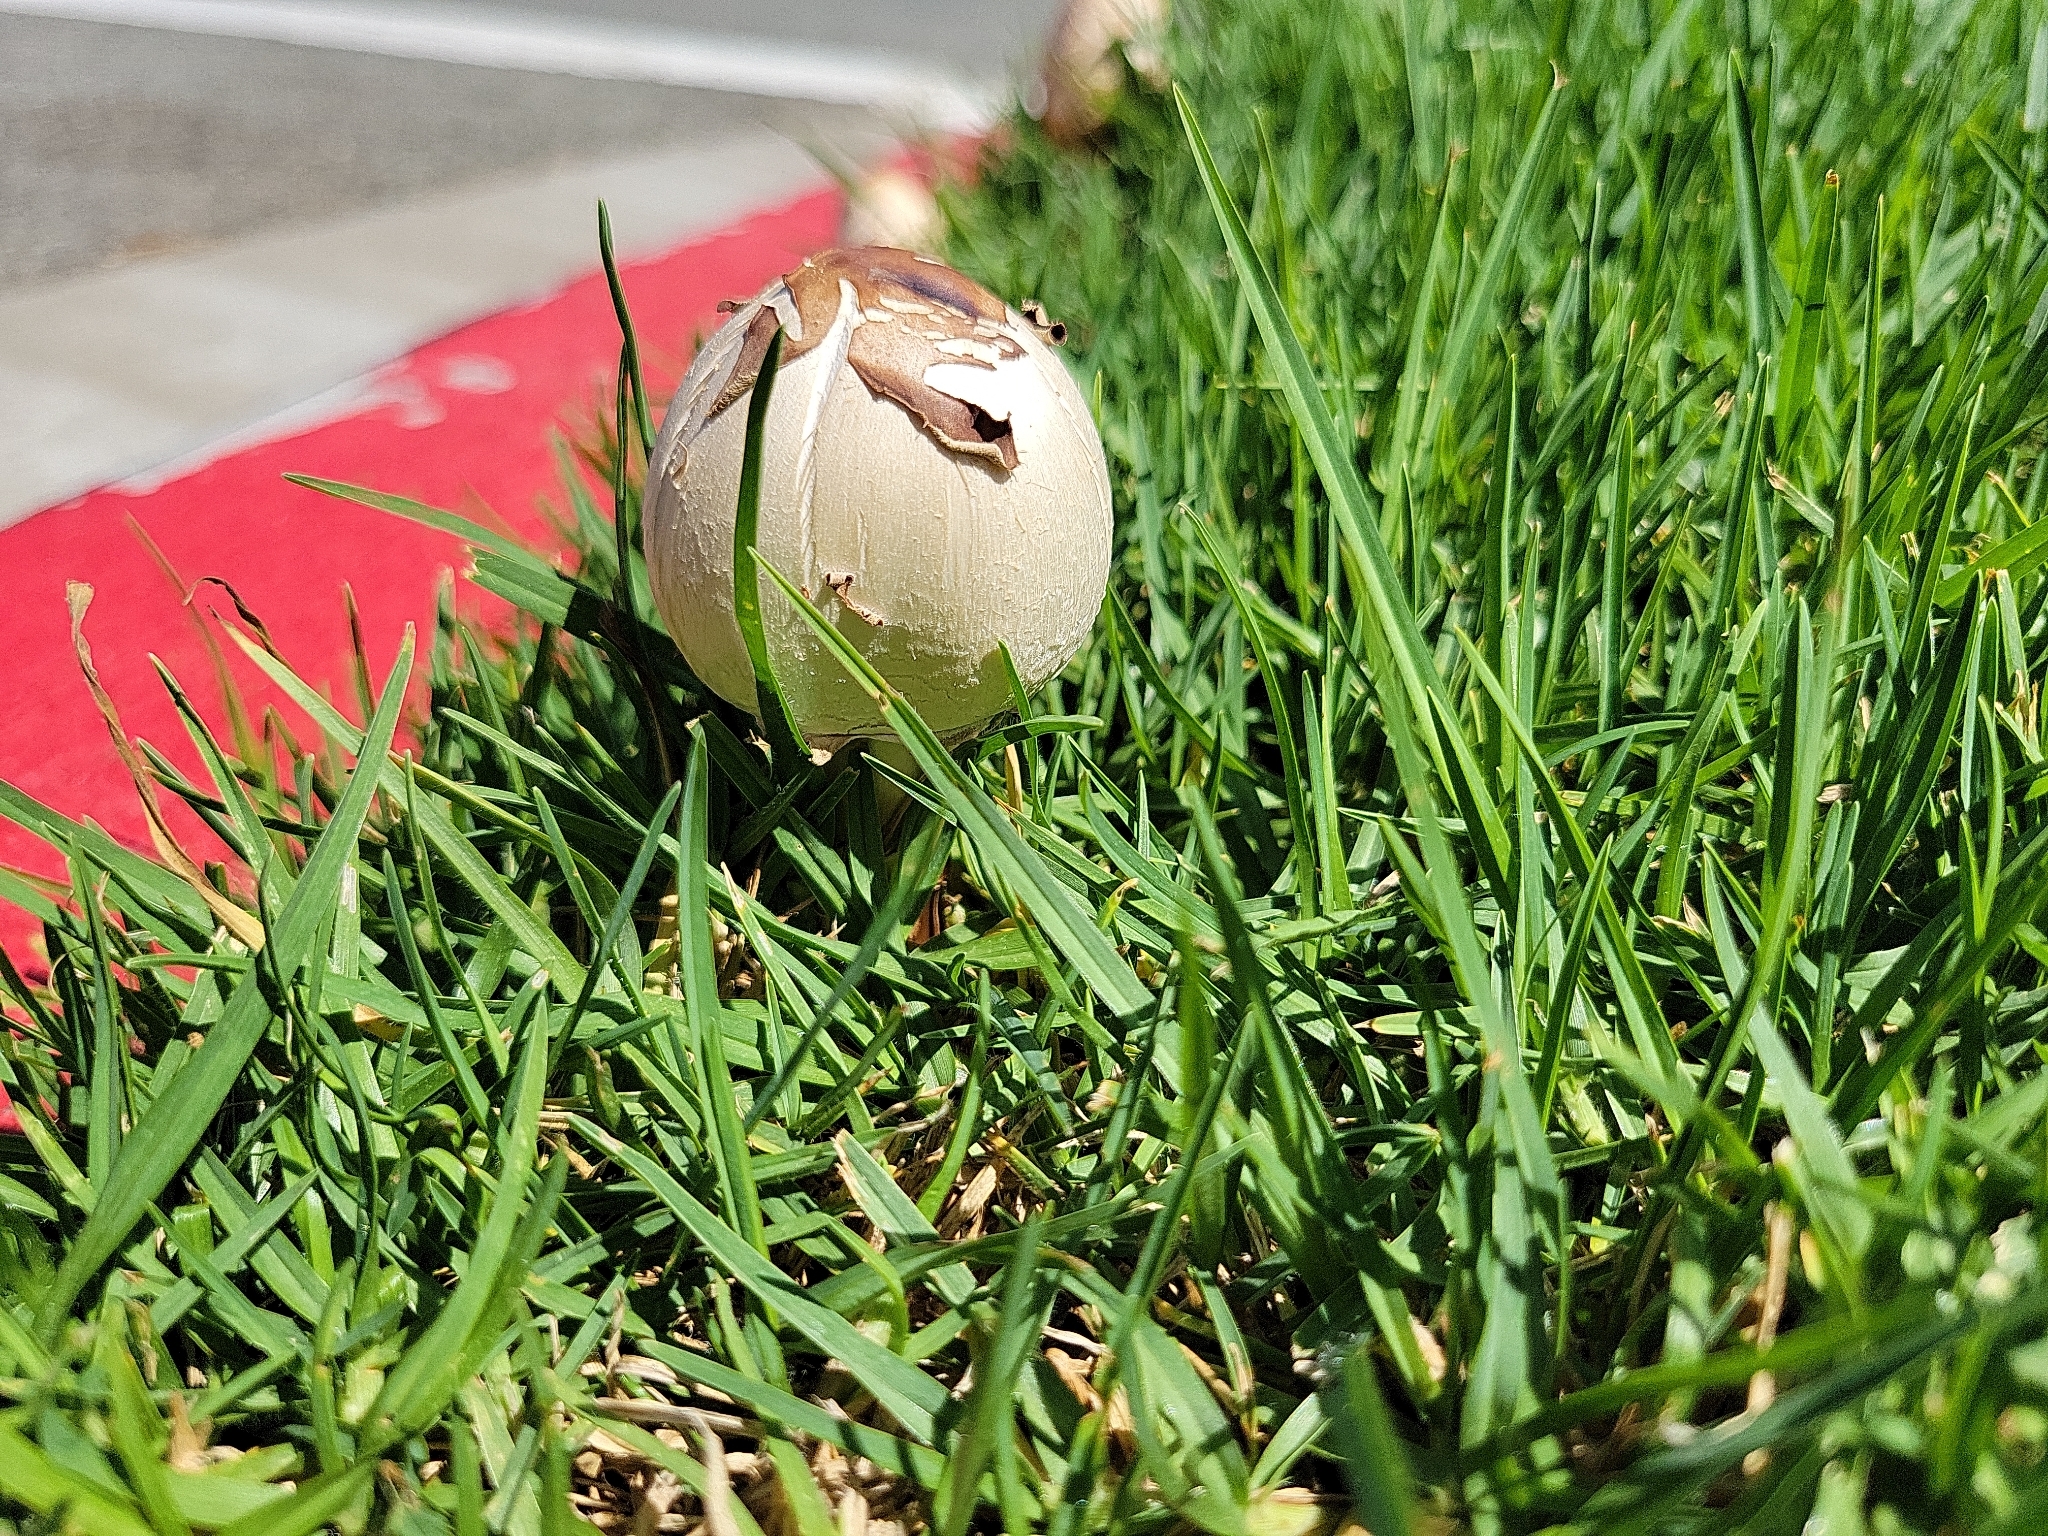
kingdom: Fungi
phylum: Basidiomycota
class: Agaricomycetes
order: Agaricales
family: Agaricaceae
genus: Chlorophyllum
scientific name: Chlorophyllum molybdites
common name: False parasol
